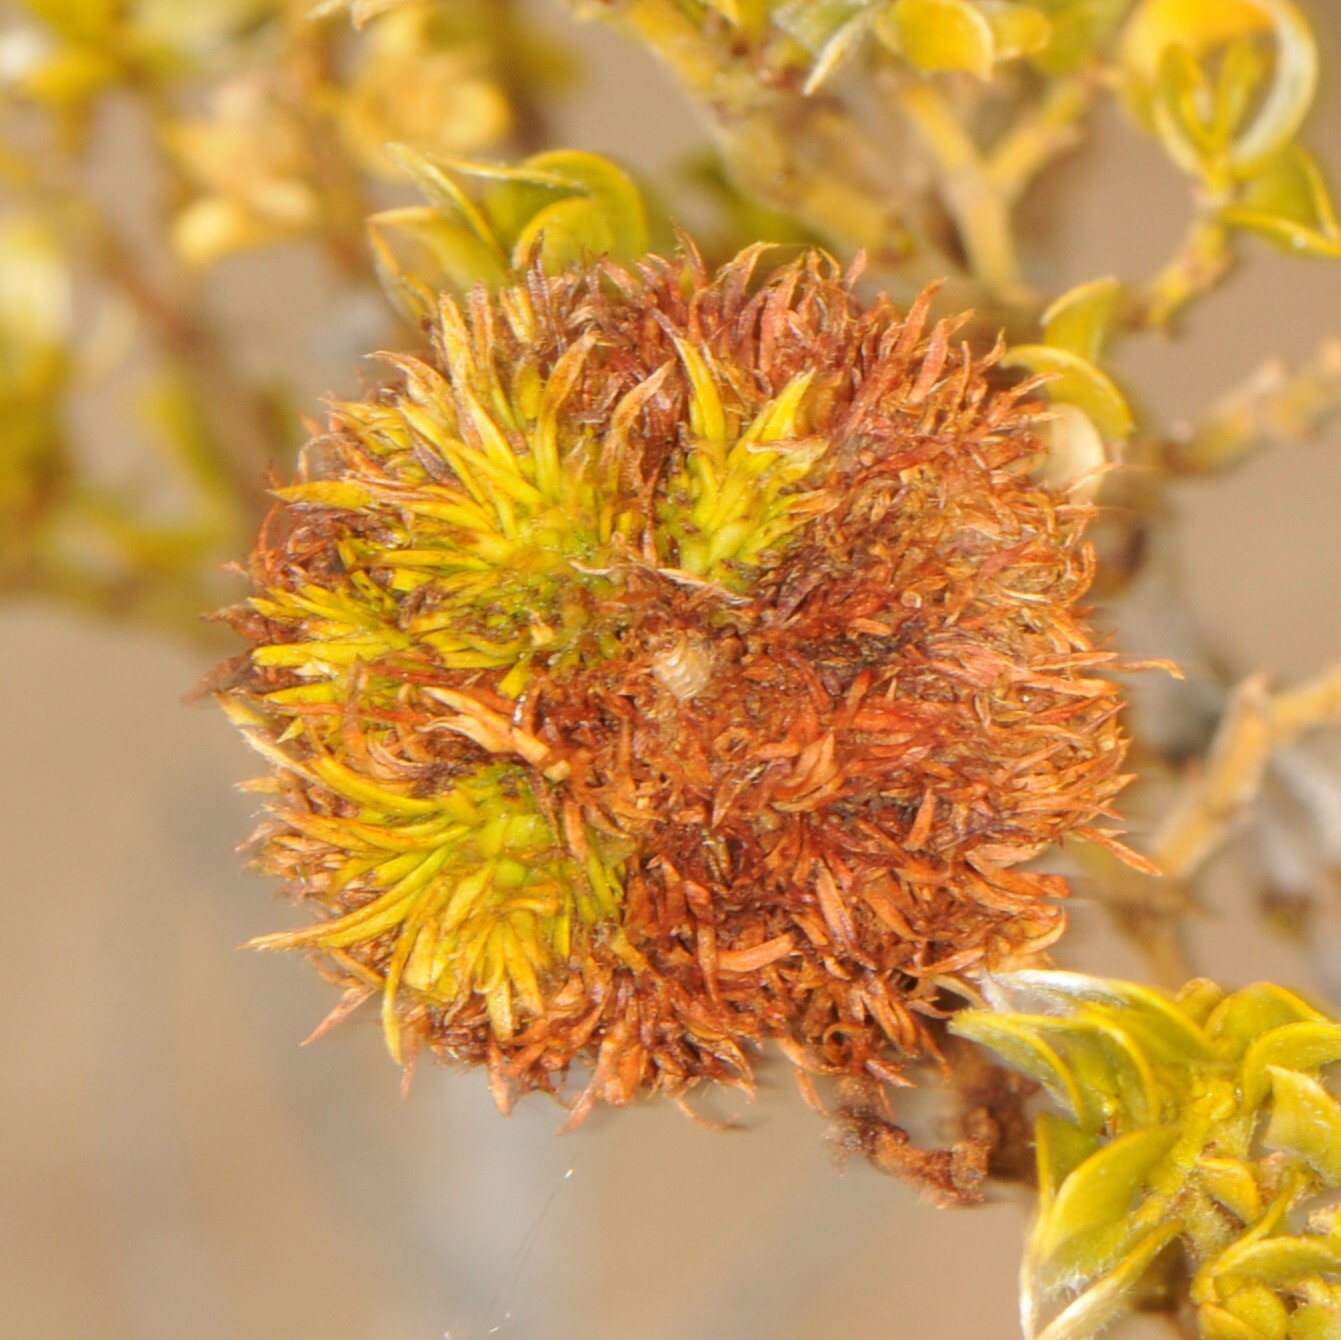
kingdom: Animalia
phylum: Arthropoda
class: Insecta
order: Diptera
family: Cecidomyiidae
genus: Asphondylia
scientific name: Asphondylia auripila
